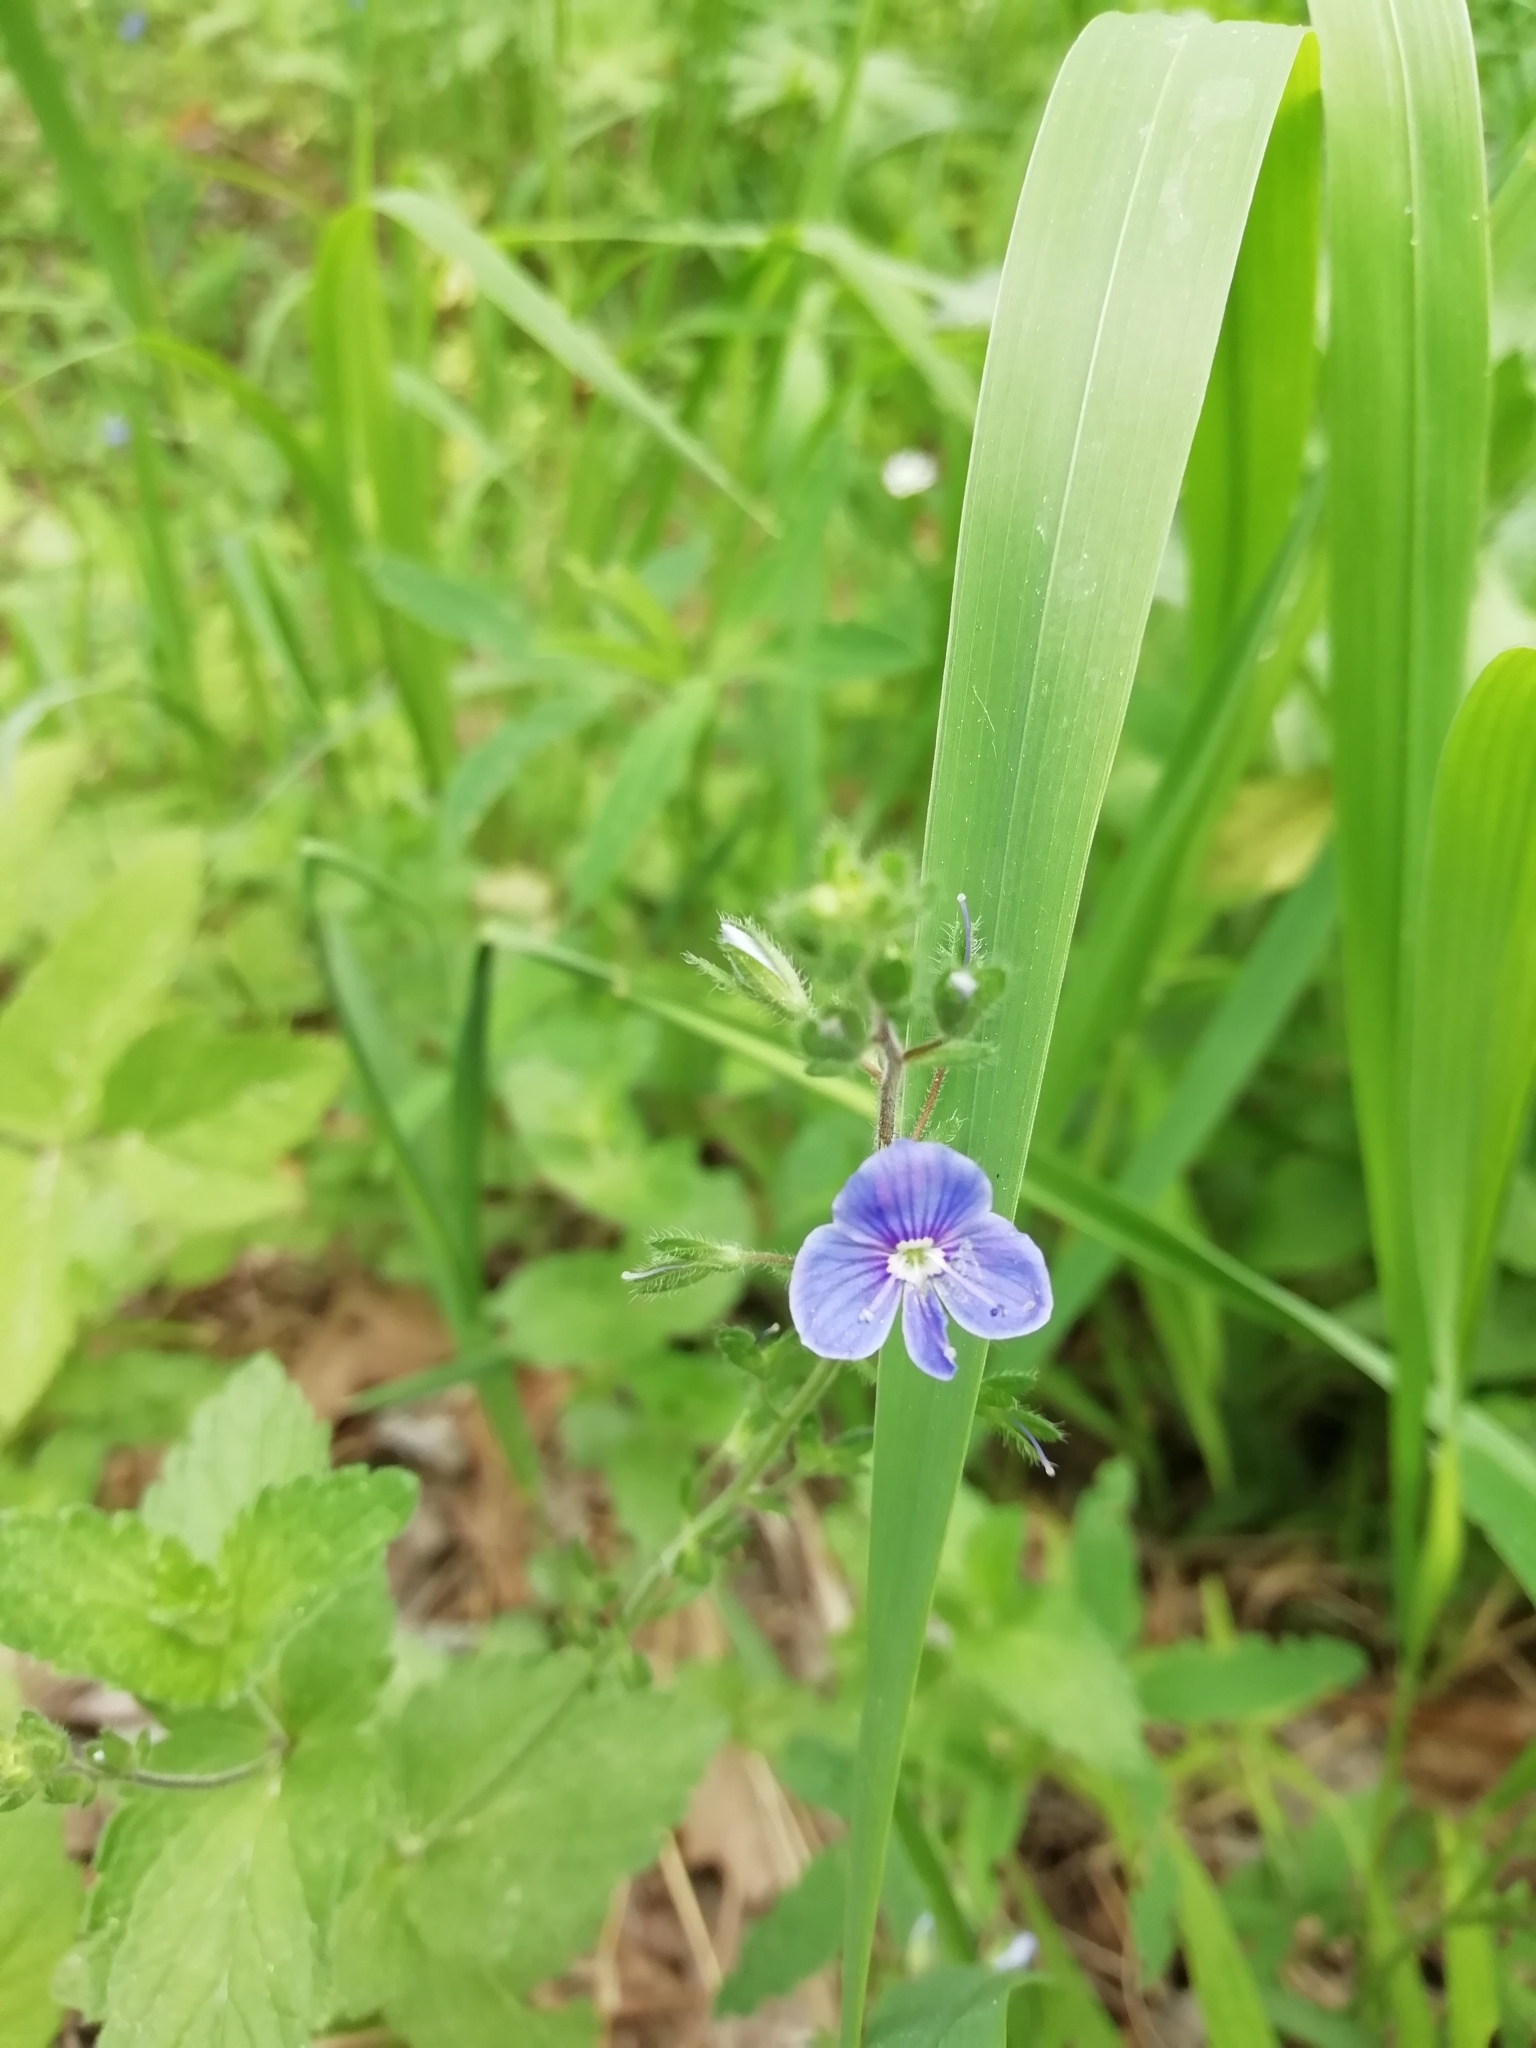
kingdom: Plantae
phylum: Tracheophyta
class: Magnoliopsida
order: Lamiales
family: Plantaginaceae
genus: Veronica
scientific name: Veronica chamaedrys
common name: Germander speedwell
